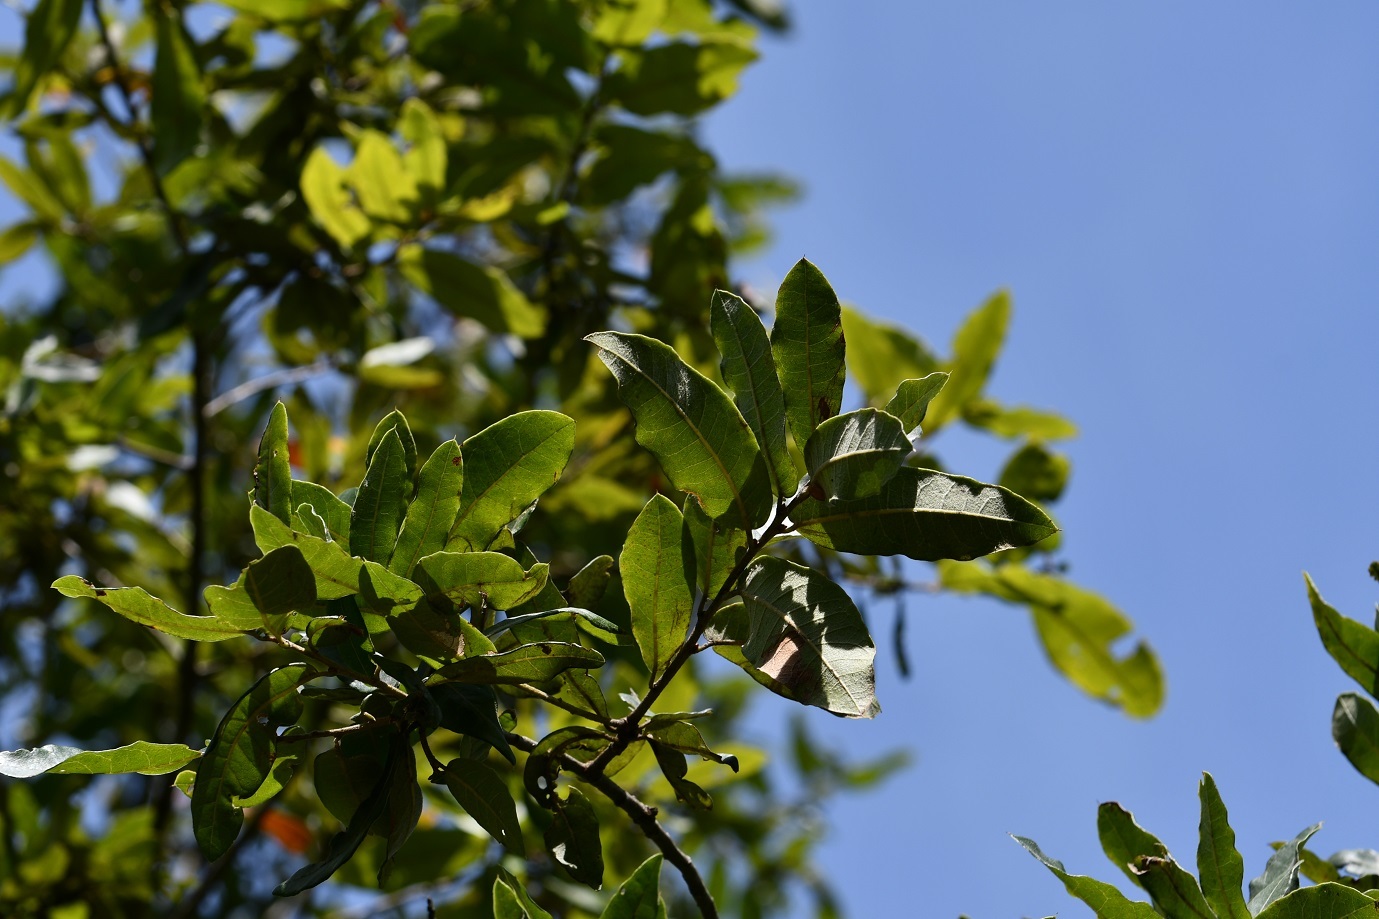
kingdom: Plantae
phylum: Tracheophyta
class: Magnoliopsida
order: Fagales
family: Fagaceae
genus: Quercus
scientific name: Quercus crispipilis
